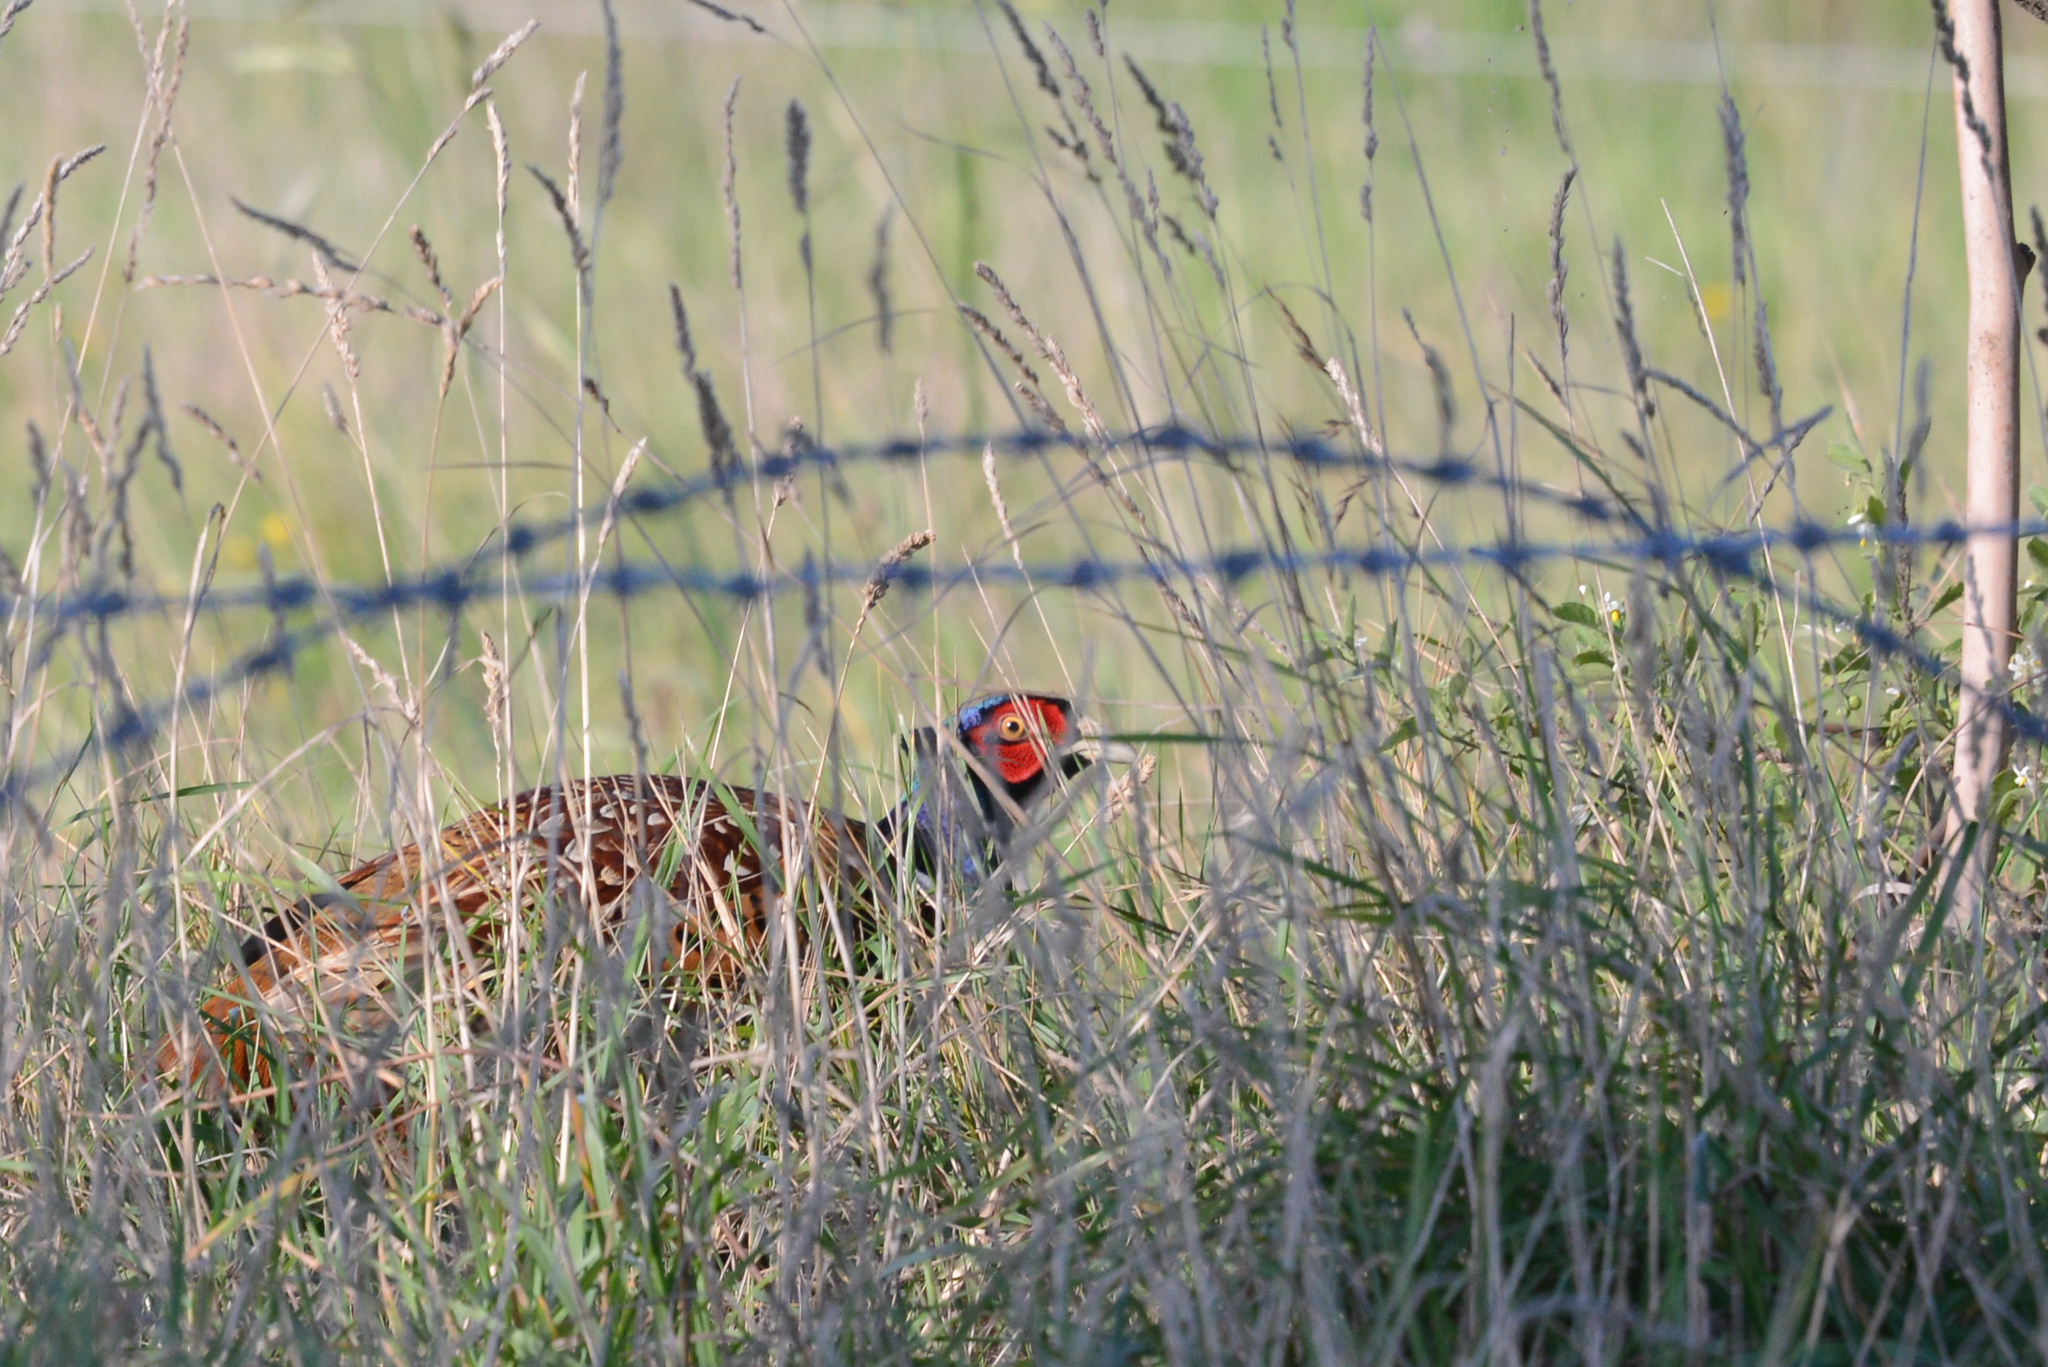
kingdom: Animalia
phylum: Chordata
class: Aves
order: Galliformes
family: Phasianidae
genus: Phasianus
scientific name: Phasianus colchicus
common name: Common pheasant
